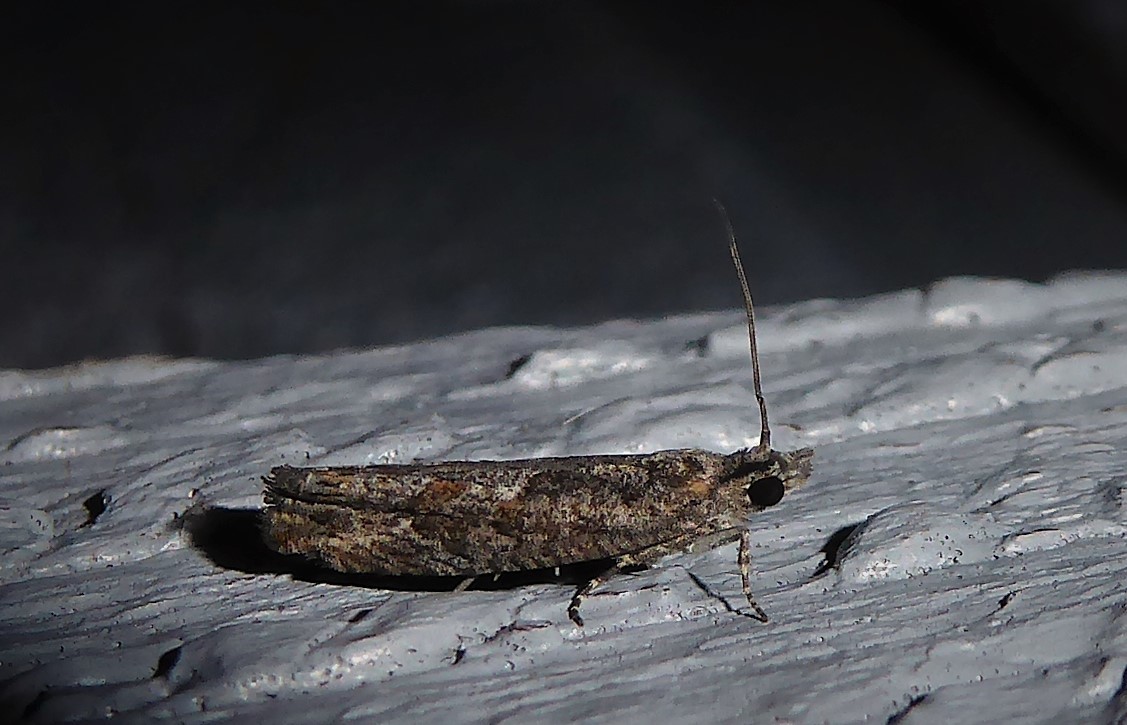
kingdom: Animalia
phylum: Arthropoda
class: Insecta
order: Lepidoptera
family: Tortricidae
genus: Strepsicrates
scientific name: Strepsicrates ejectana
